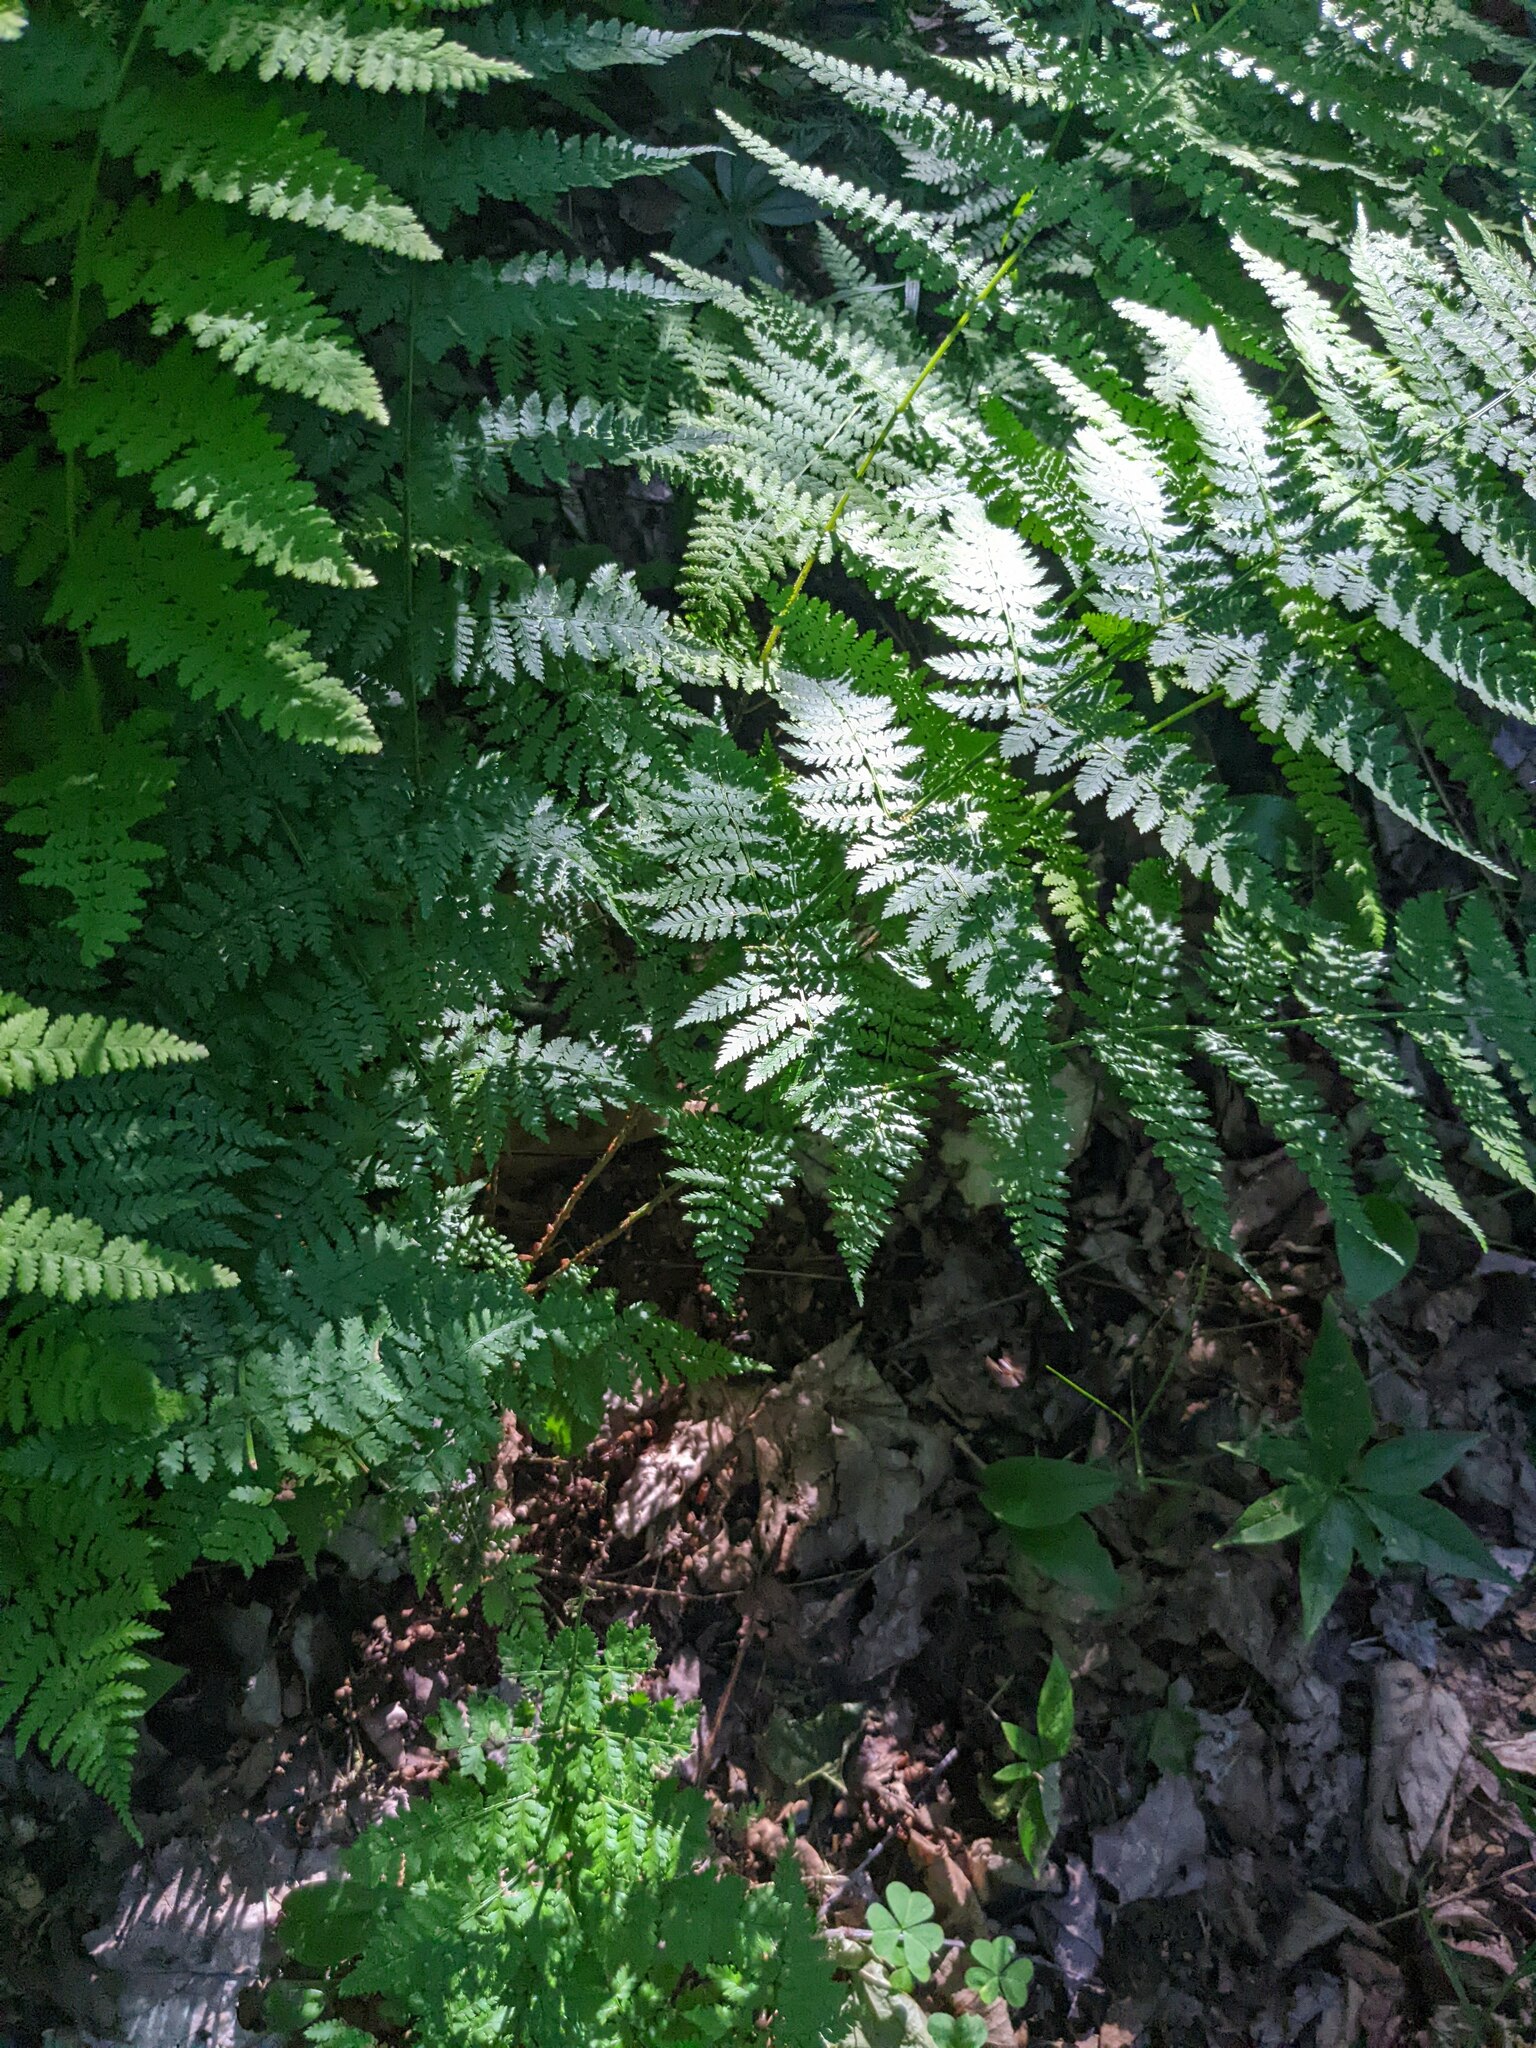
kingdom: Plantae
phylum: Tracheophyta
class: Polypodiopsida
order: Polypodiales
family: Dryopteridaceae
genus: Dryopteris
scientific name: Dryopteris intermedia
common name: Evergreen wood fern
